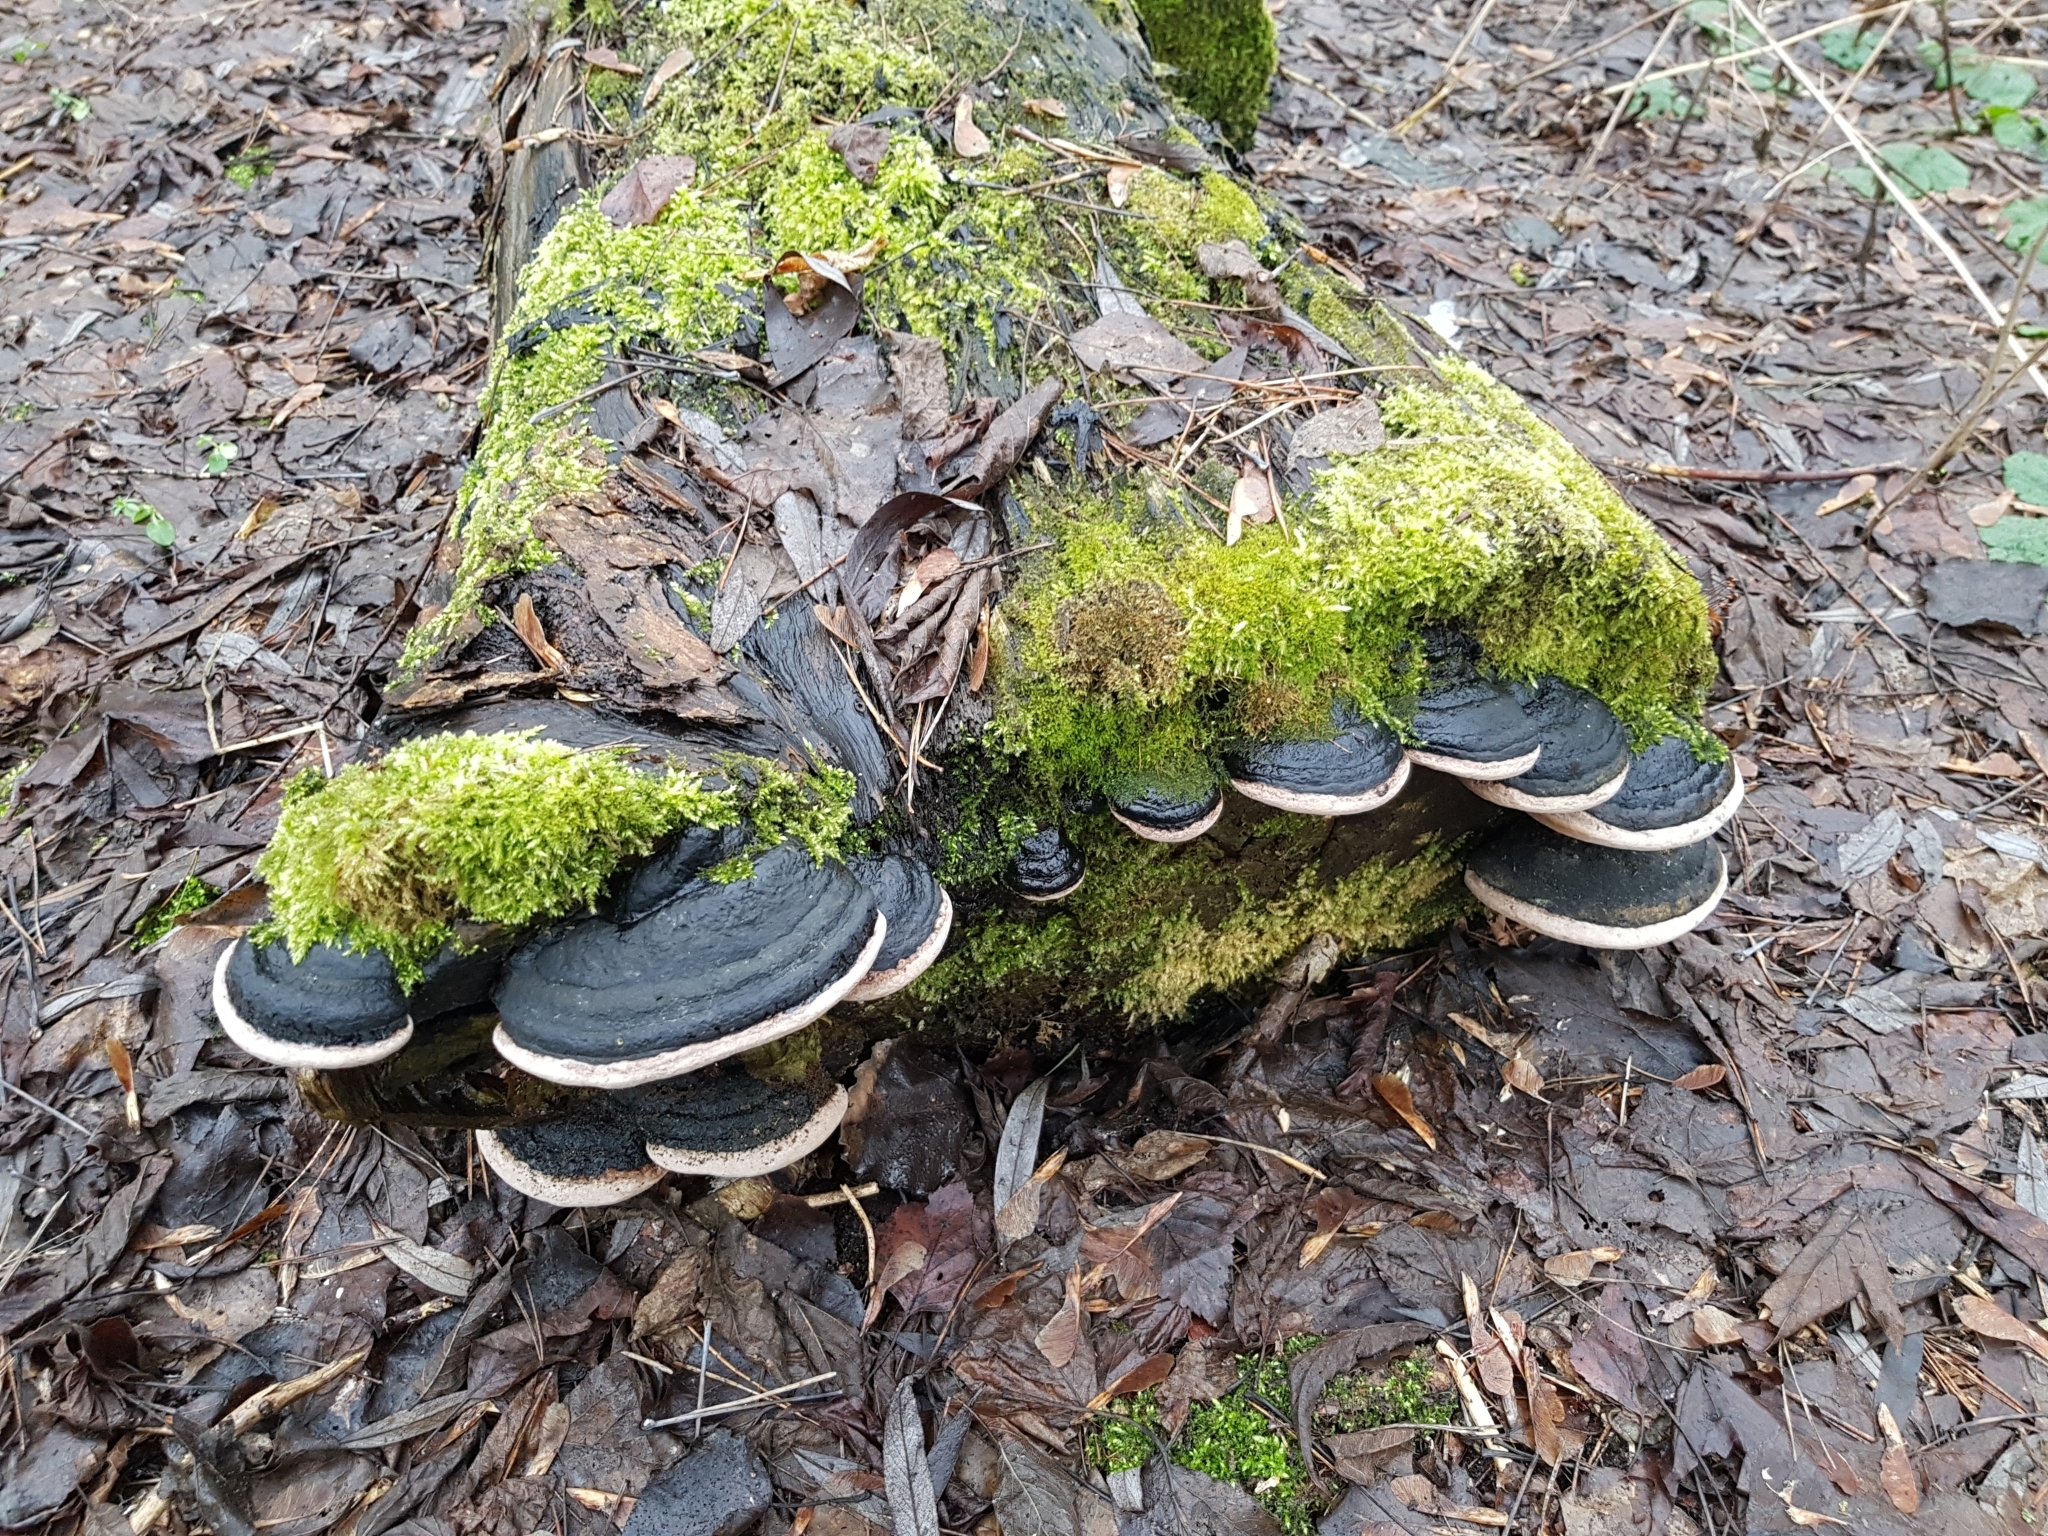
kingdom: Fungi
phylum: Basidiomycota
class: Agaricomycetes
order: Polyporales
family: Polyporaceae
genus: Ganoderma
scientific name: Ganoderma applanatum
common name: Artist's bracket
